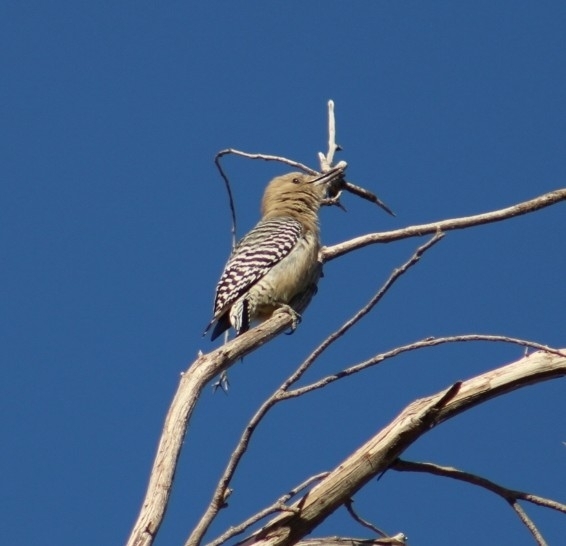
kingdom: Animalia
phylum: Chordata
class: Aves
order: Piciformes
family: Picidae
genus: Melanerpes
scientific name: Melanerpes uropygialis
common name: Gila woodpecker
